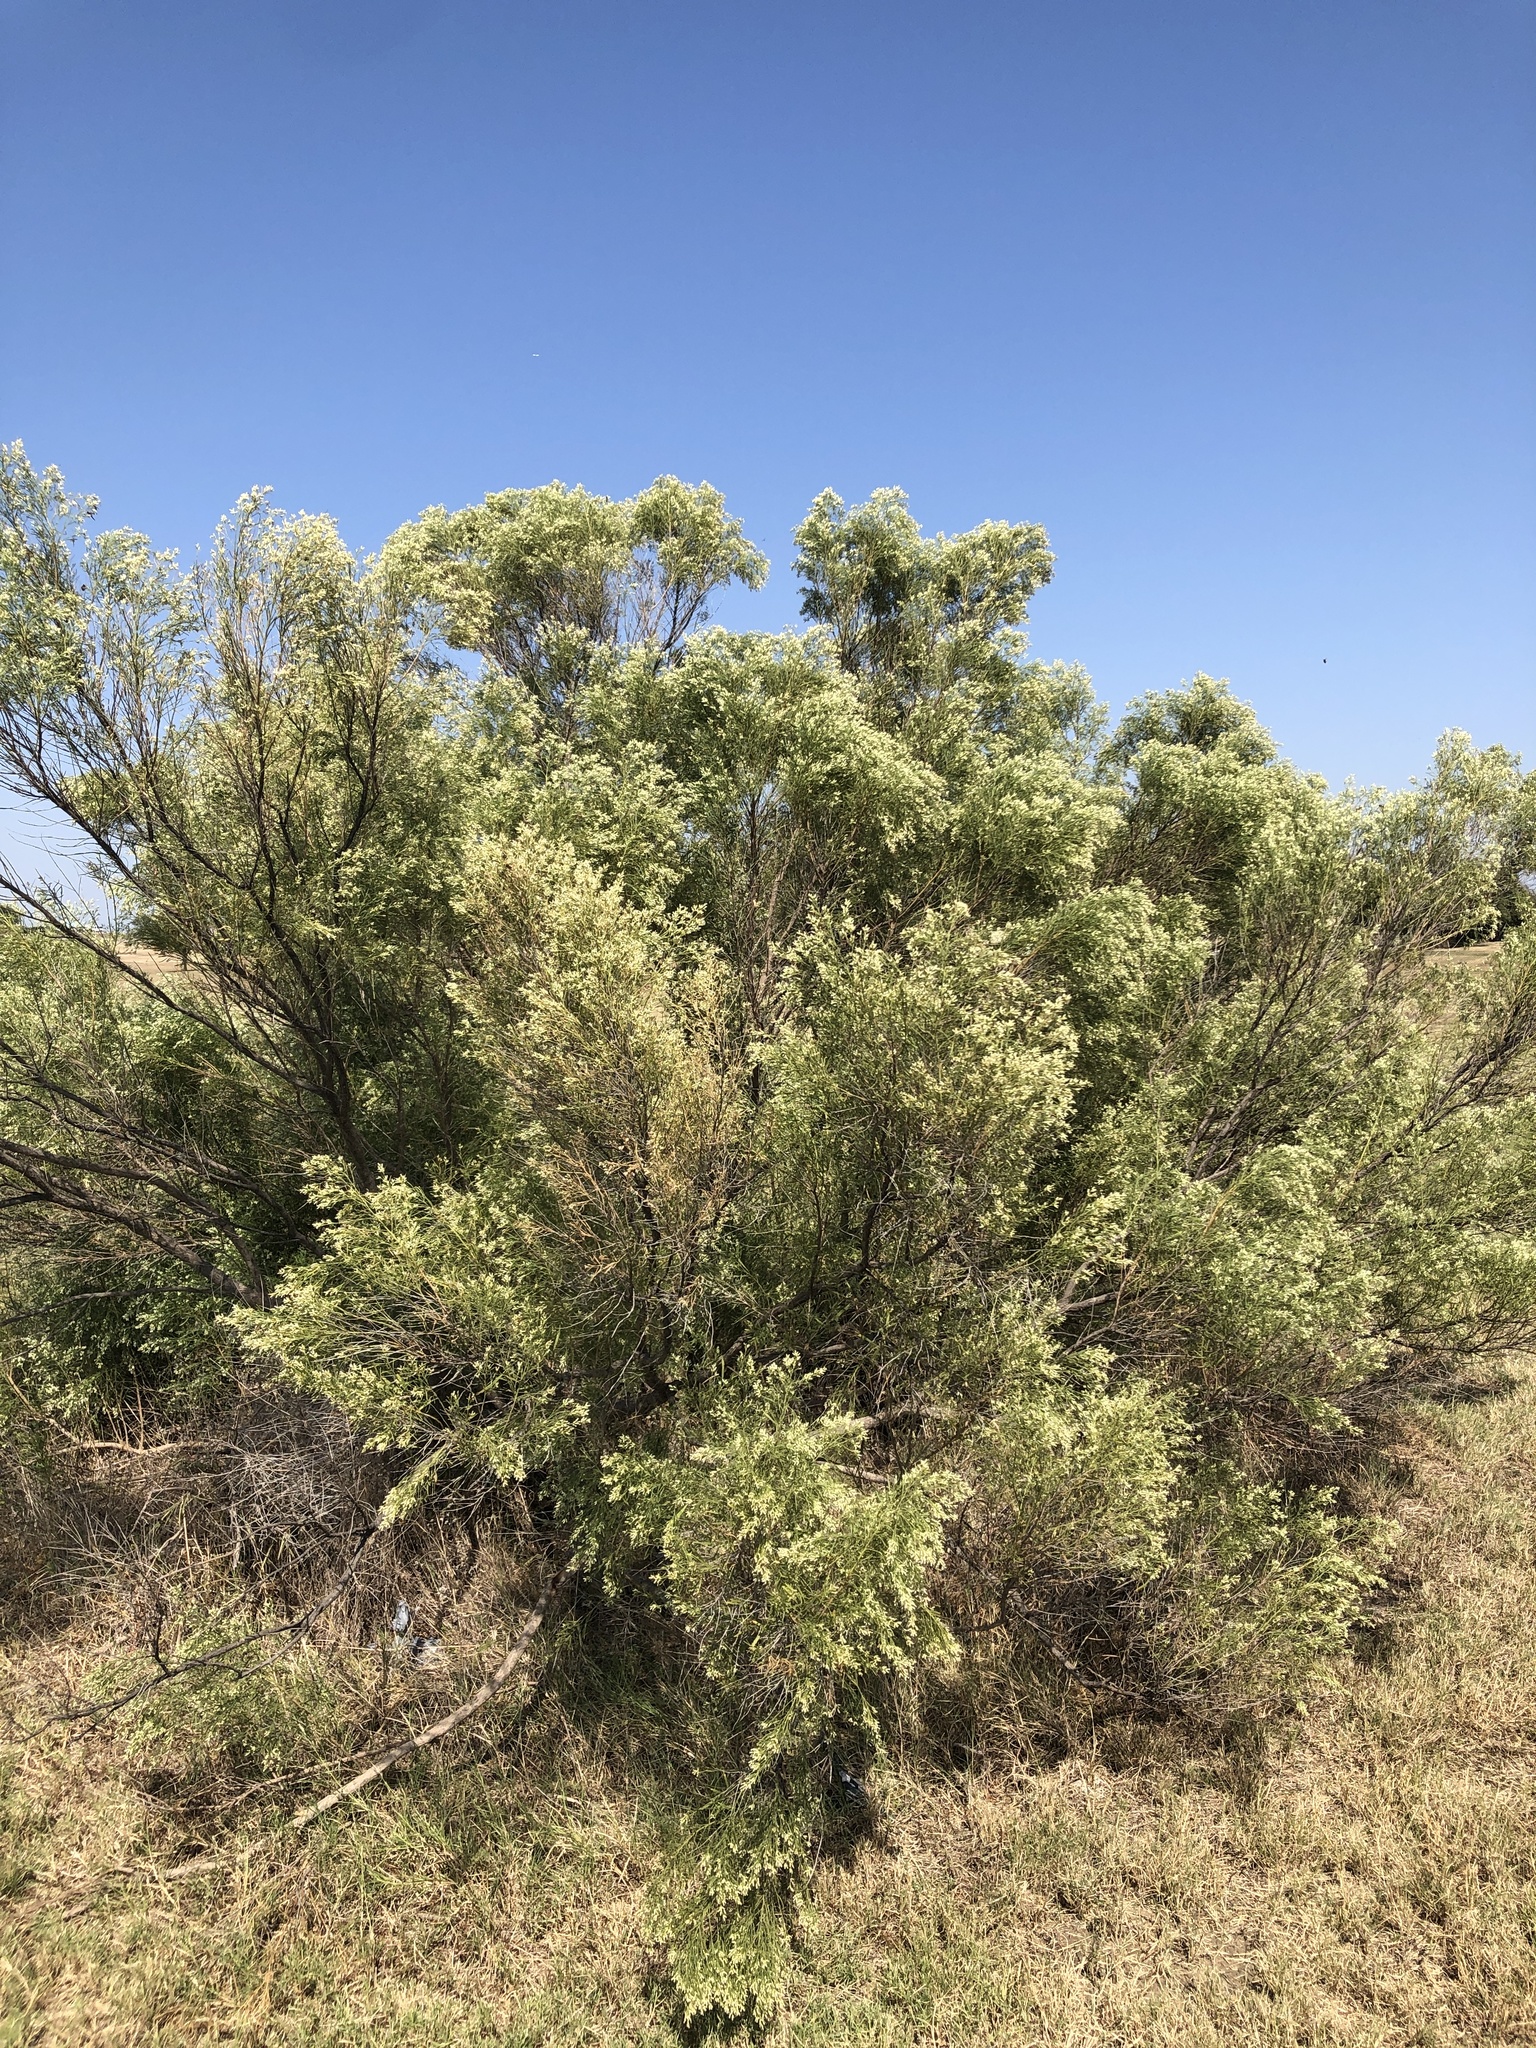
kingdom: Plantae
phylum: Tracheophyta
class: Magnoliopsida
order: Asterales
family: Asteraceae
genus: Baccharis
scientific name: Baccharis neglecta
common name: Roosevelt-weed
